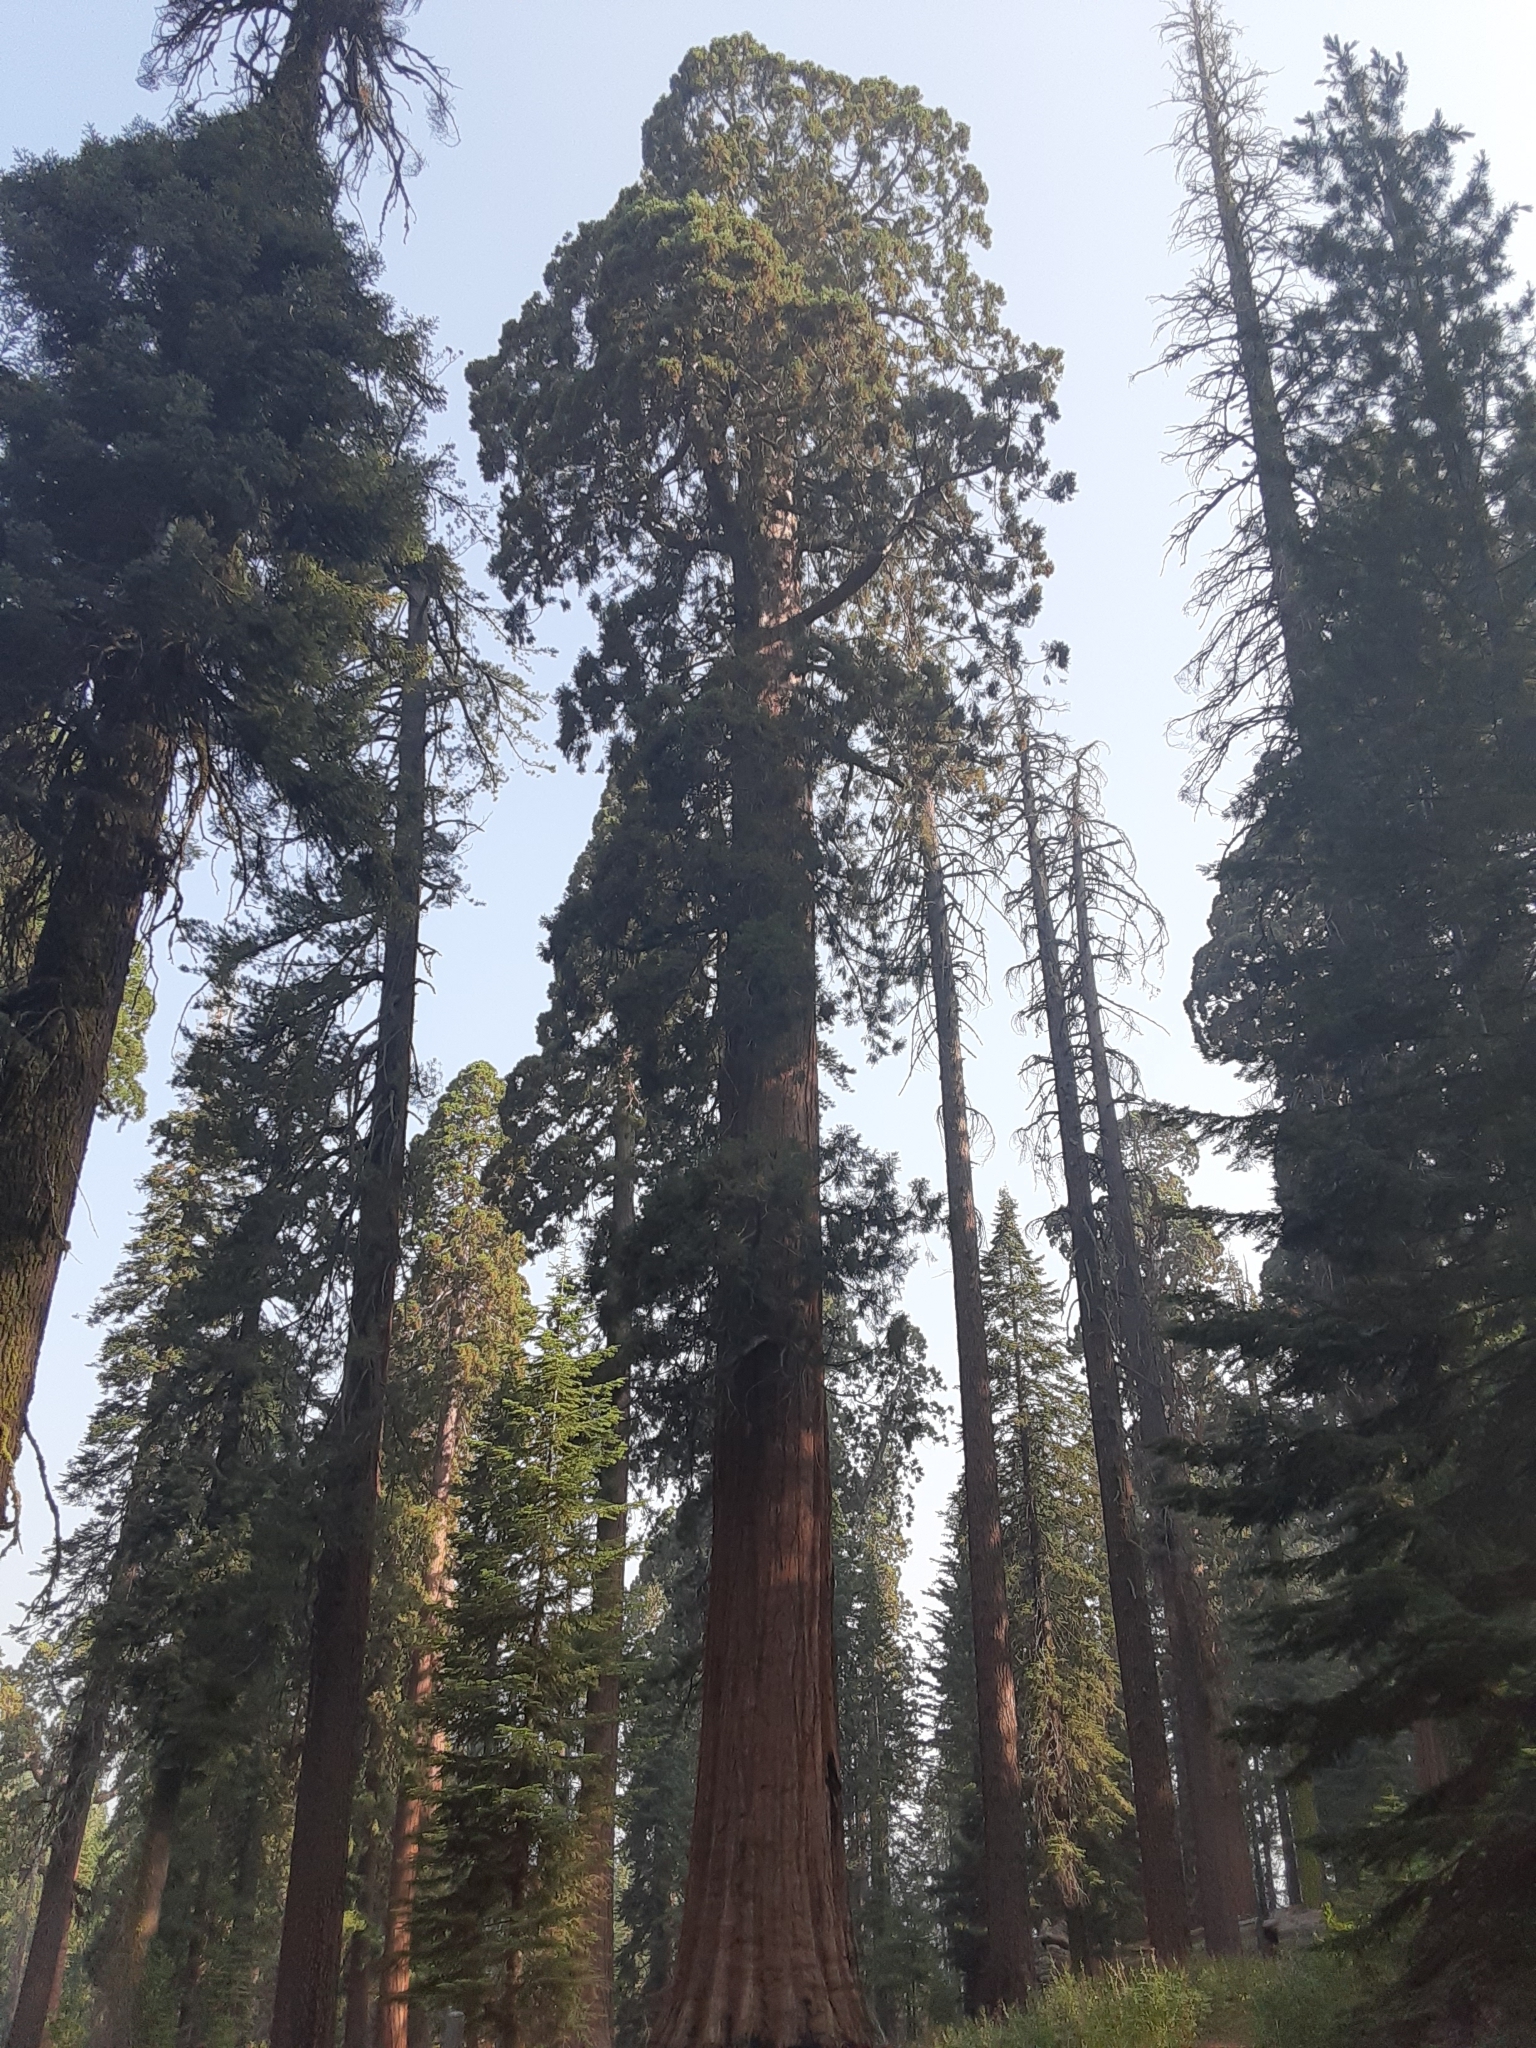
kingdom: Plantae
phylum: Tracheophyta
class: Pinopsida
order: Pinales
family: Cupressaceae
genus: Sequoiadendron
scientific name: Sequoiadendron giganteum
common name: Wellingtonia
